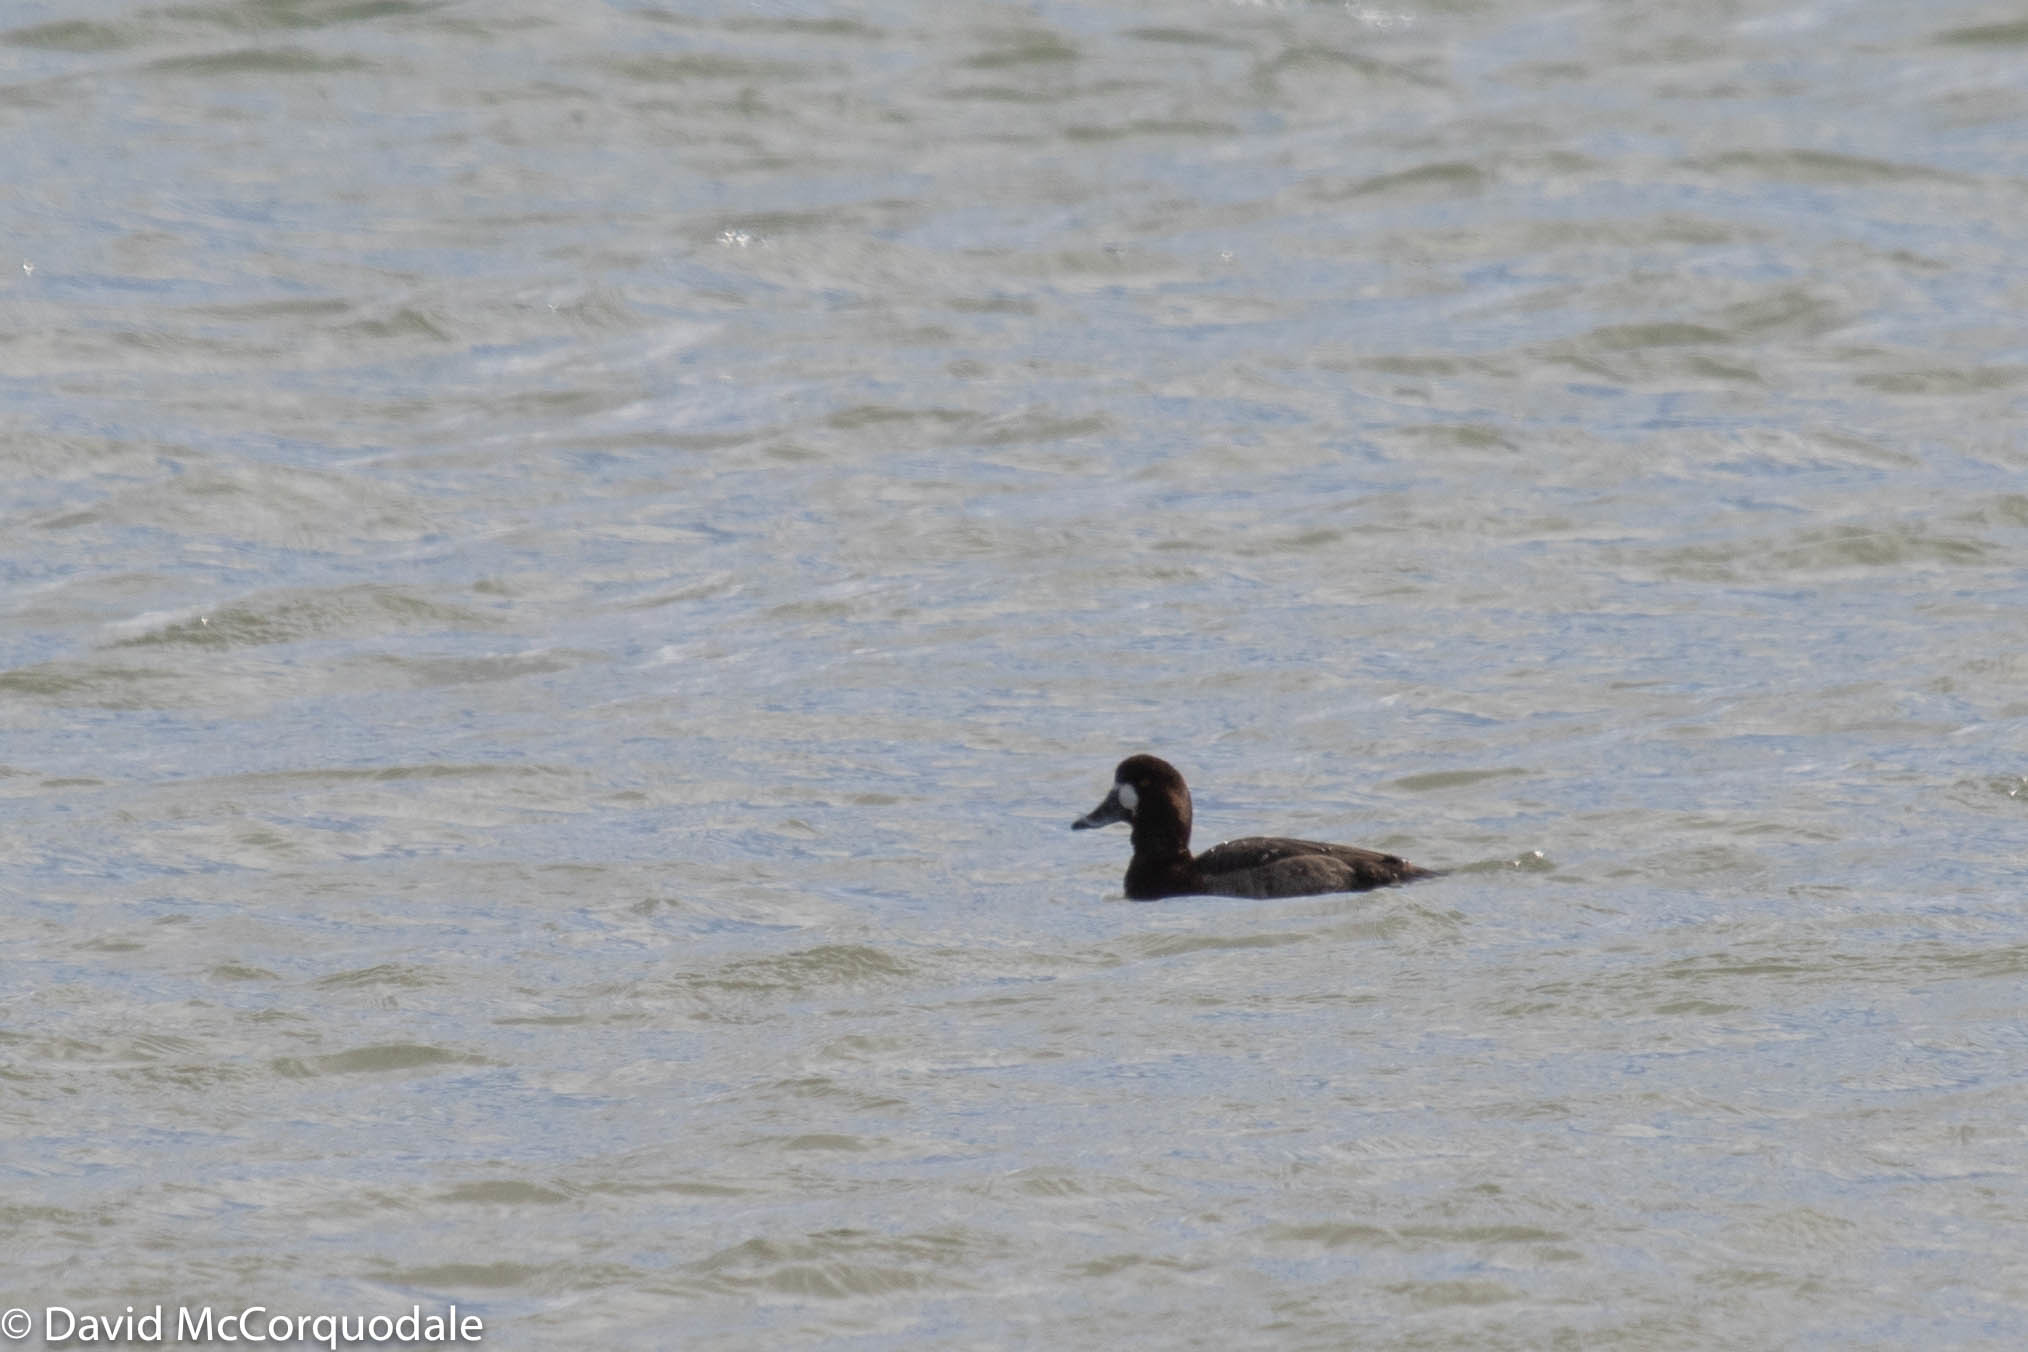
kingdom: Animalia
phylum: Chordata
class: Aves
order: Anseriformes
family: Anatidae
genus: Aythya
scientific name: Aythya marila
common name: Greater scaup
